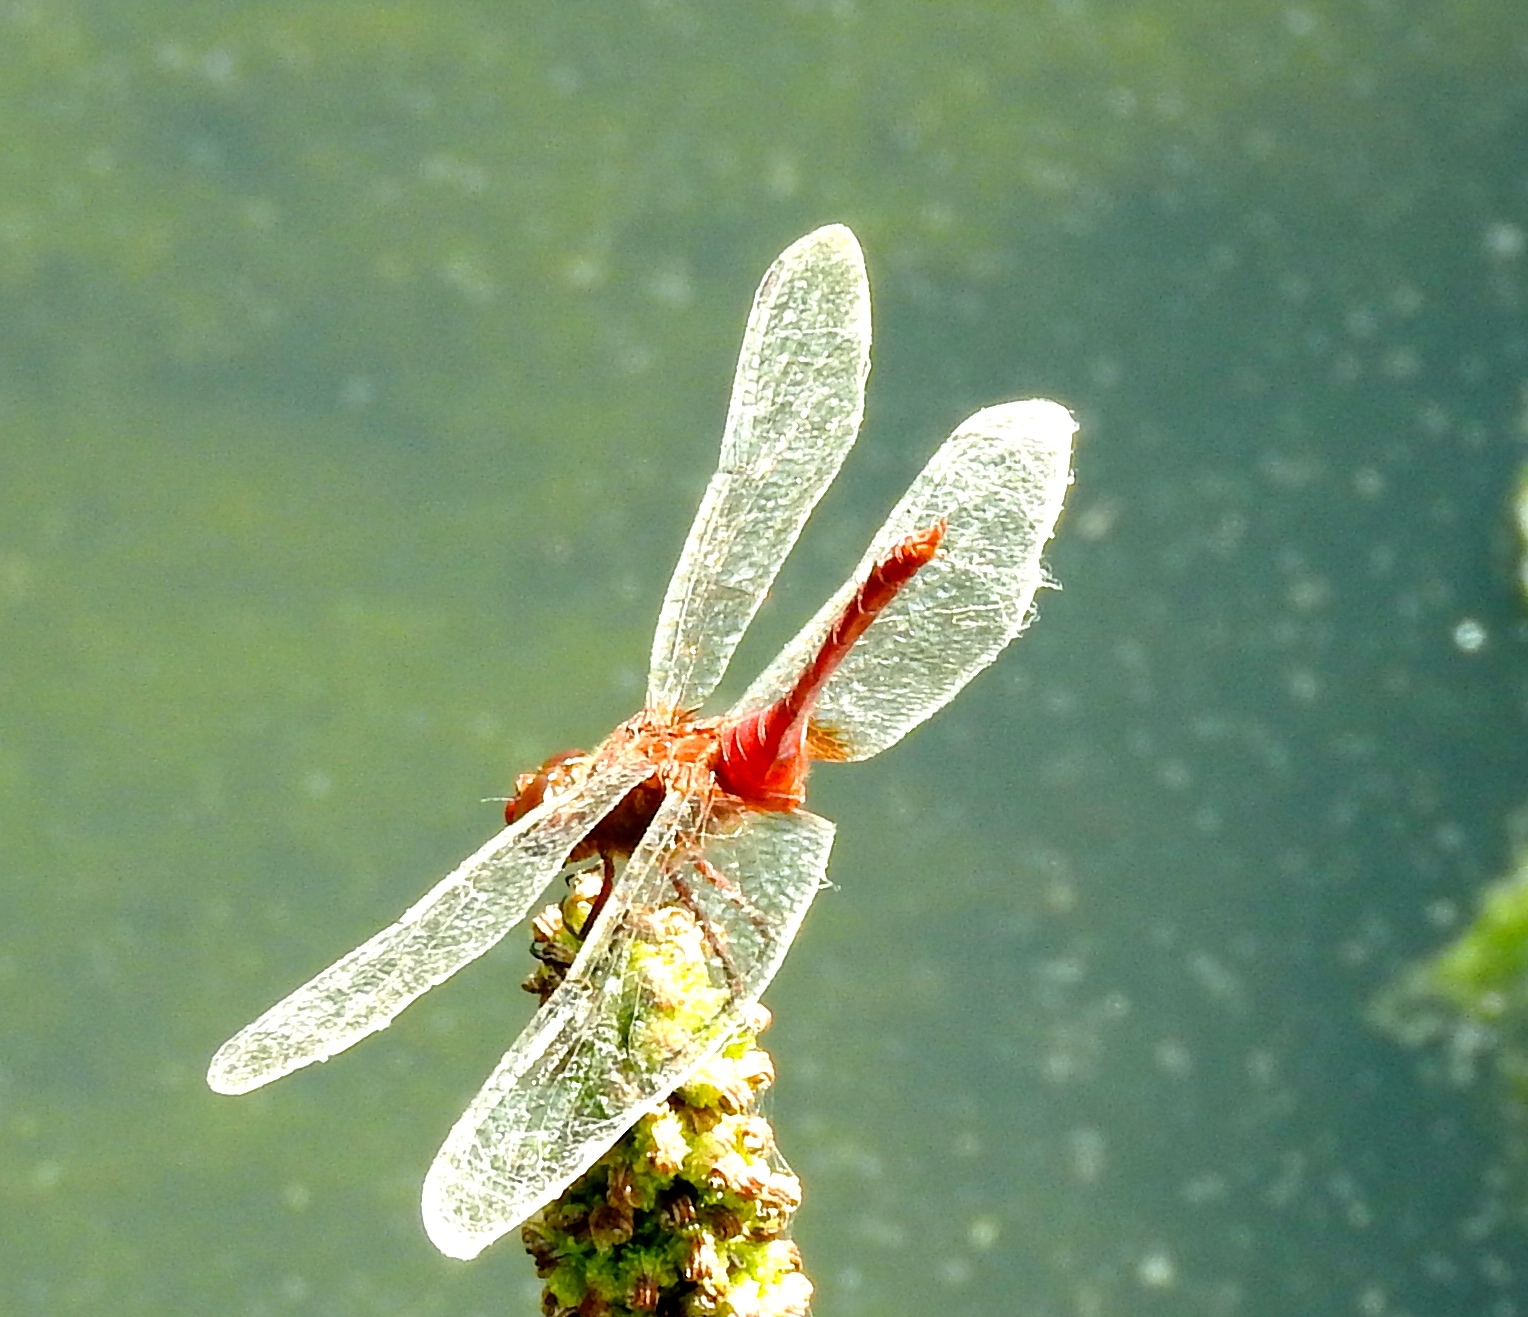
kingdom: Animalia
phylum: Arthropoda
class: Insecta
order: Odonata
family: Libellulidae
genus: Brachymesia
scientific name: Brachymesia furcata
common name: Red-taled pennant
